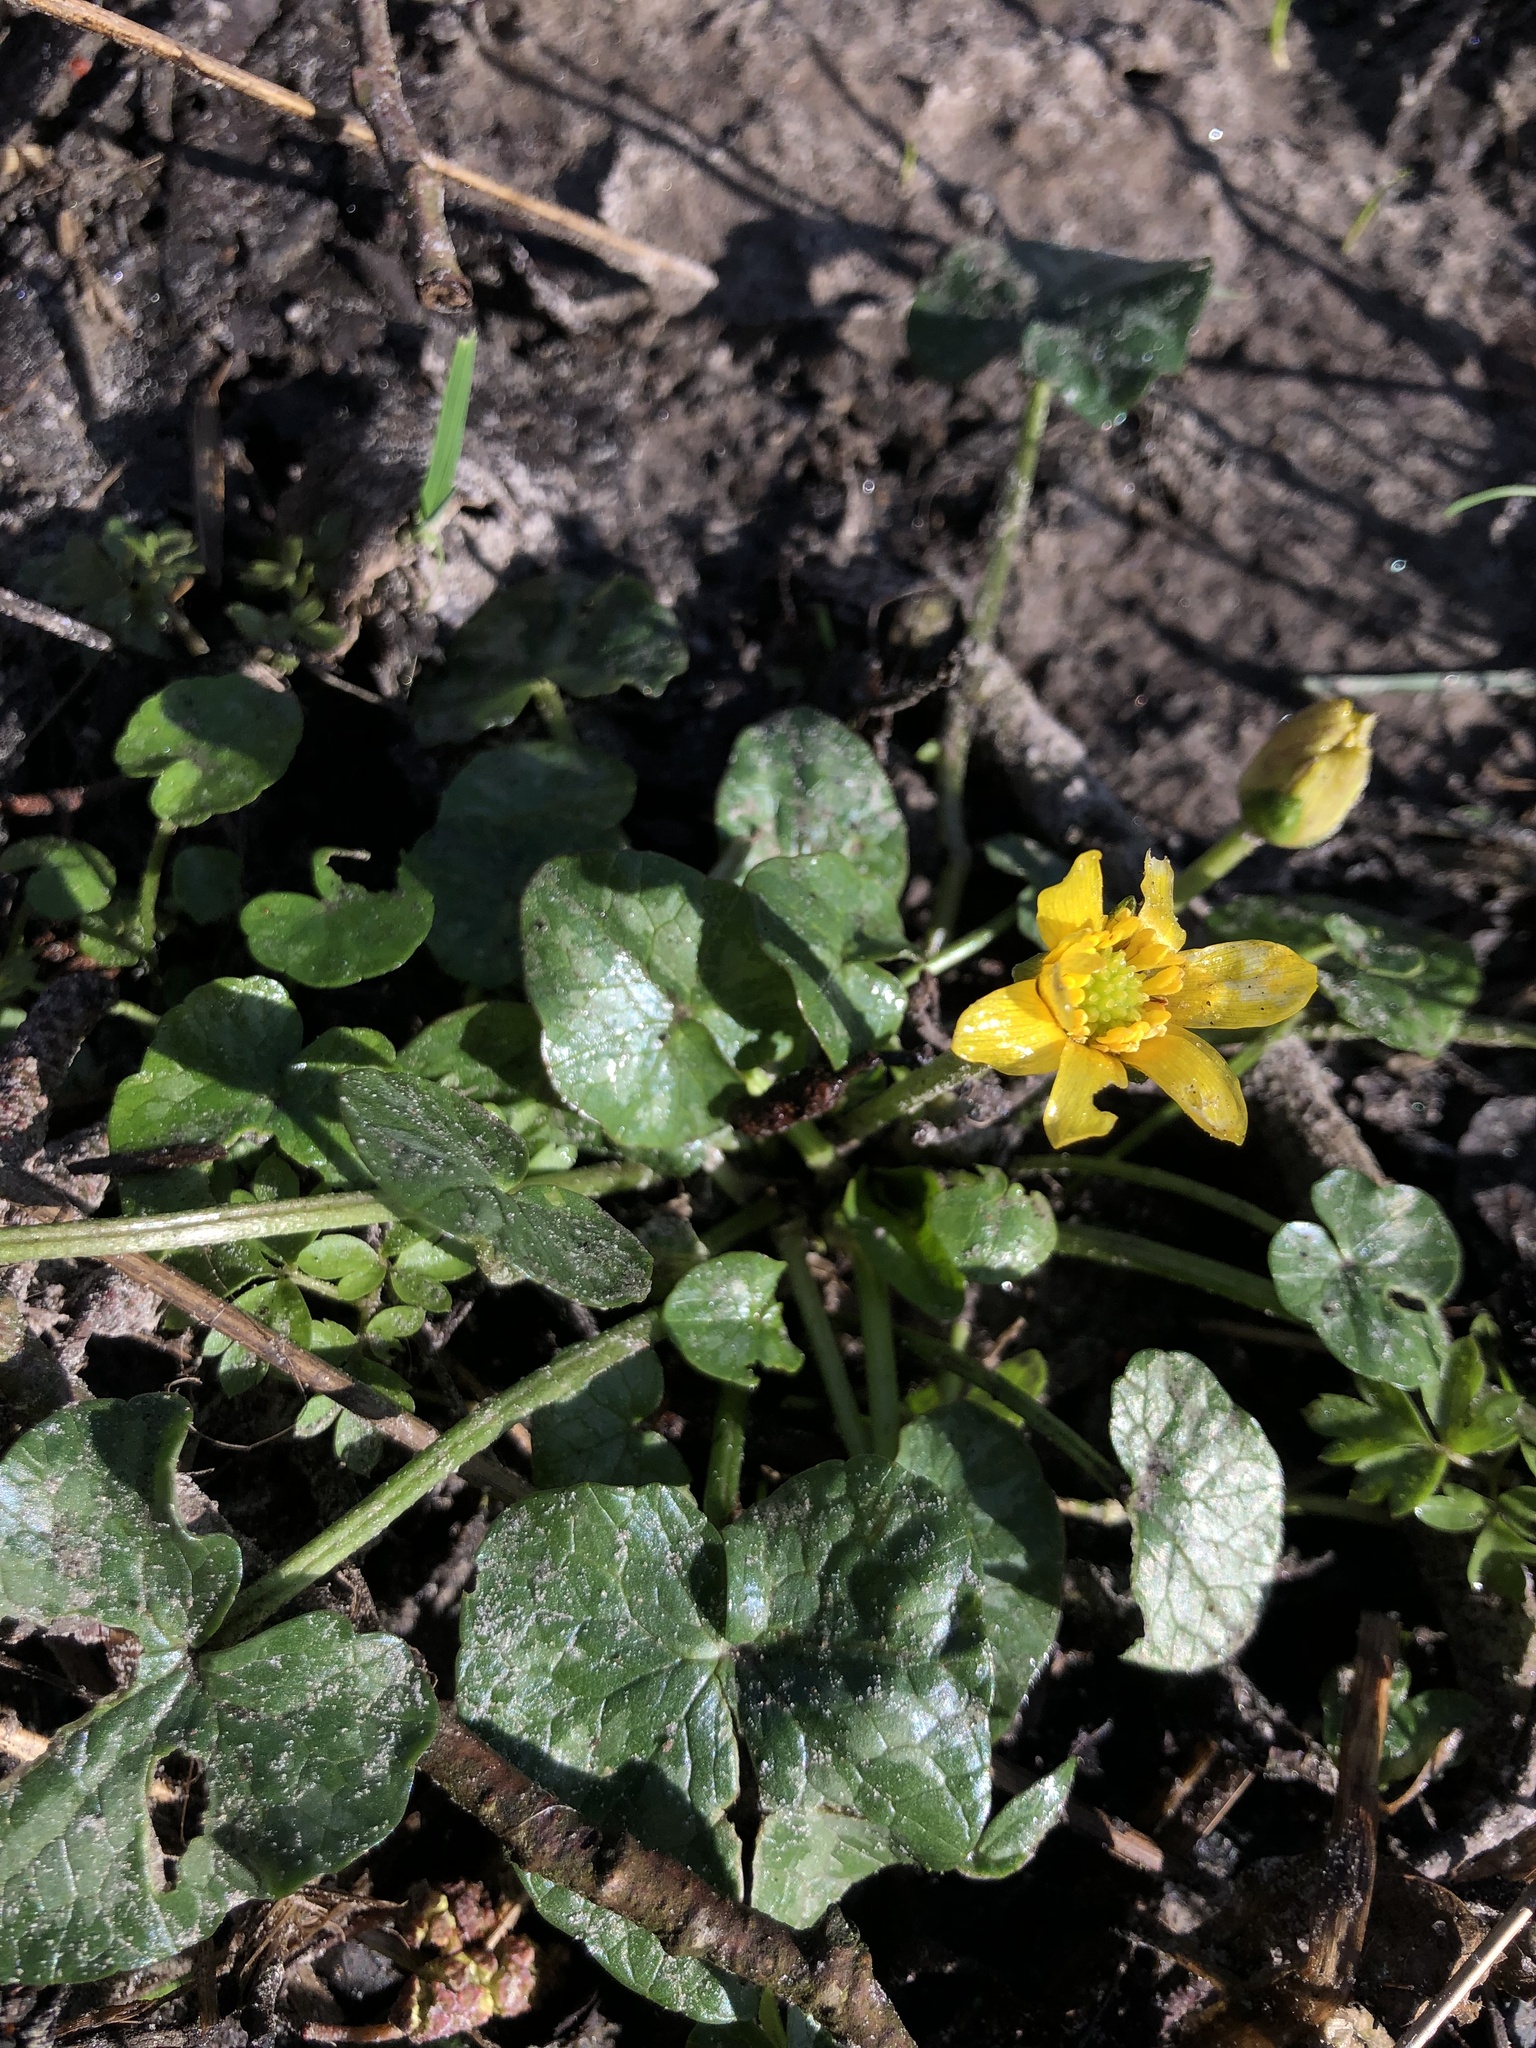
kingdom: Plantae
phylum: Tracheophyta
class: Magnoliopsida
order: Ranunculales
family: Ranunculaceae
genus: Ficaria
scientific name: Ficaria verna
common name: Lesser celandine
